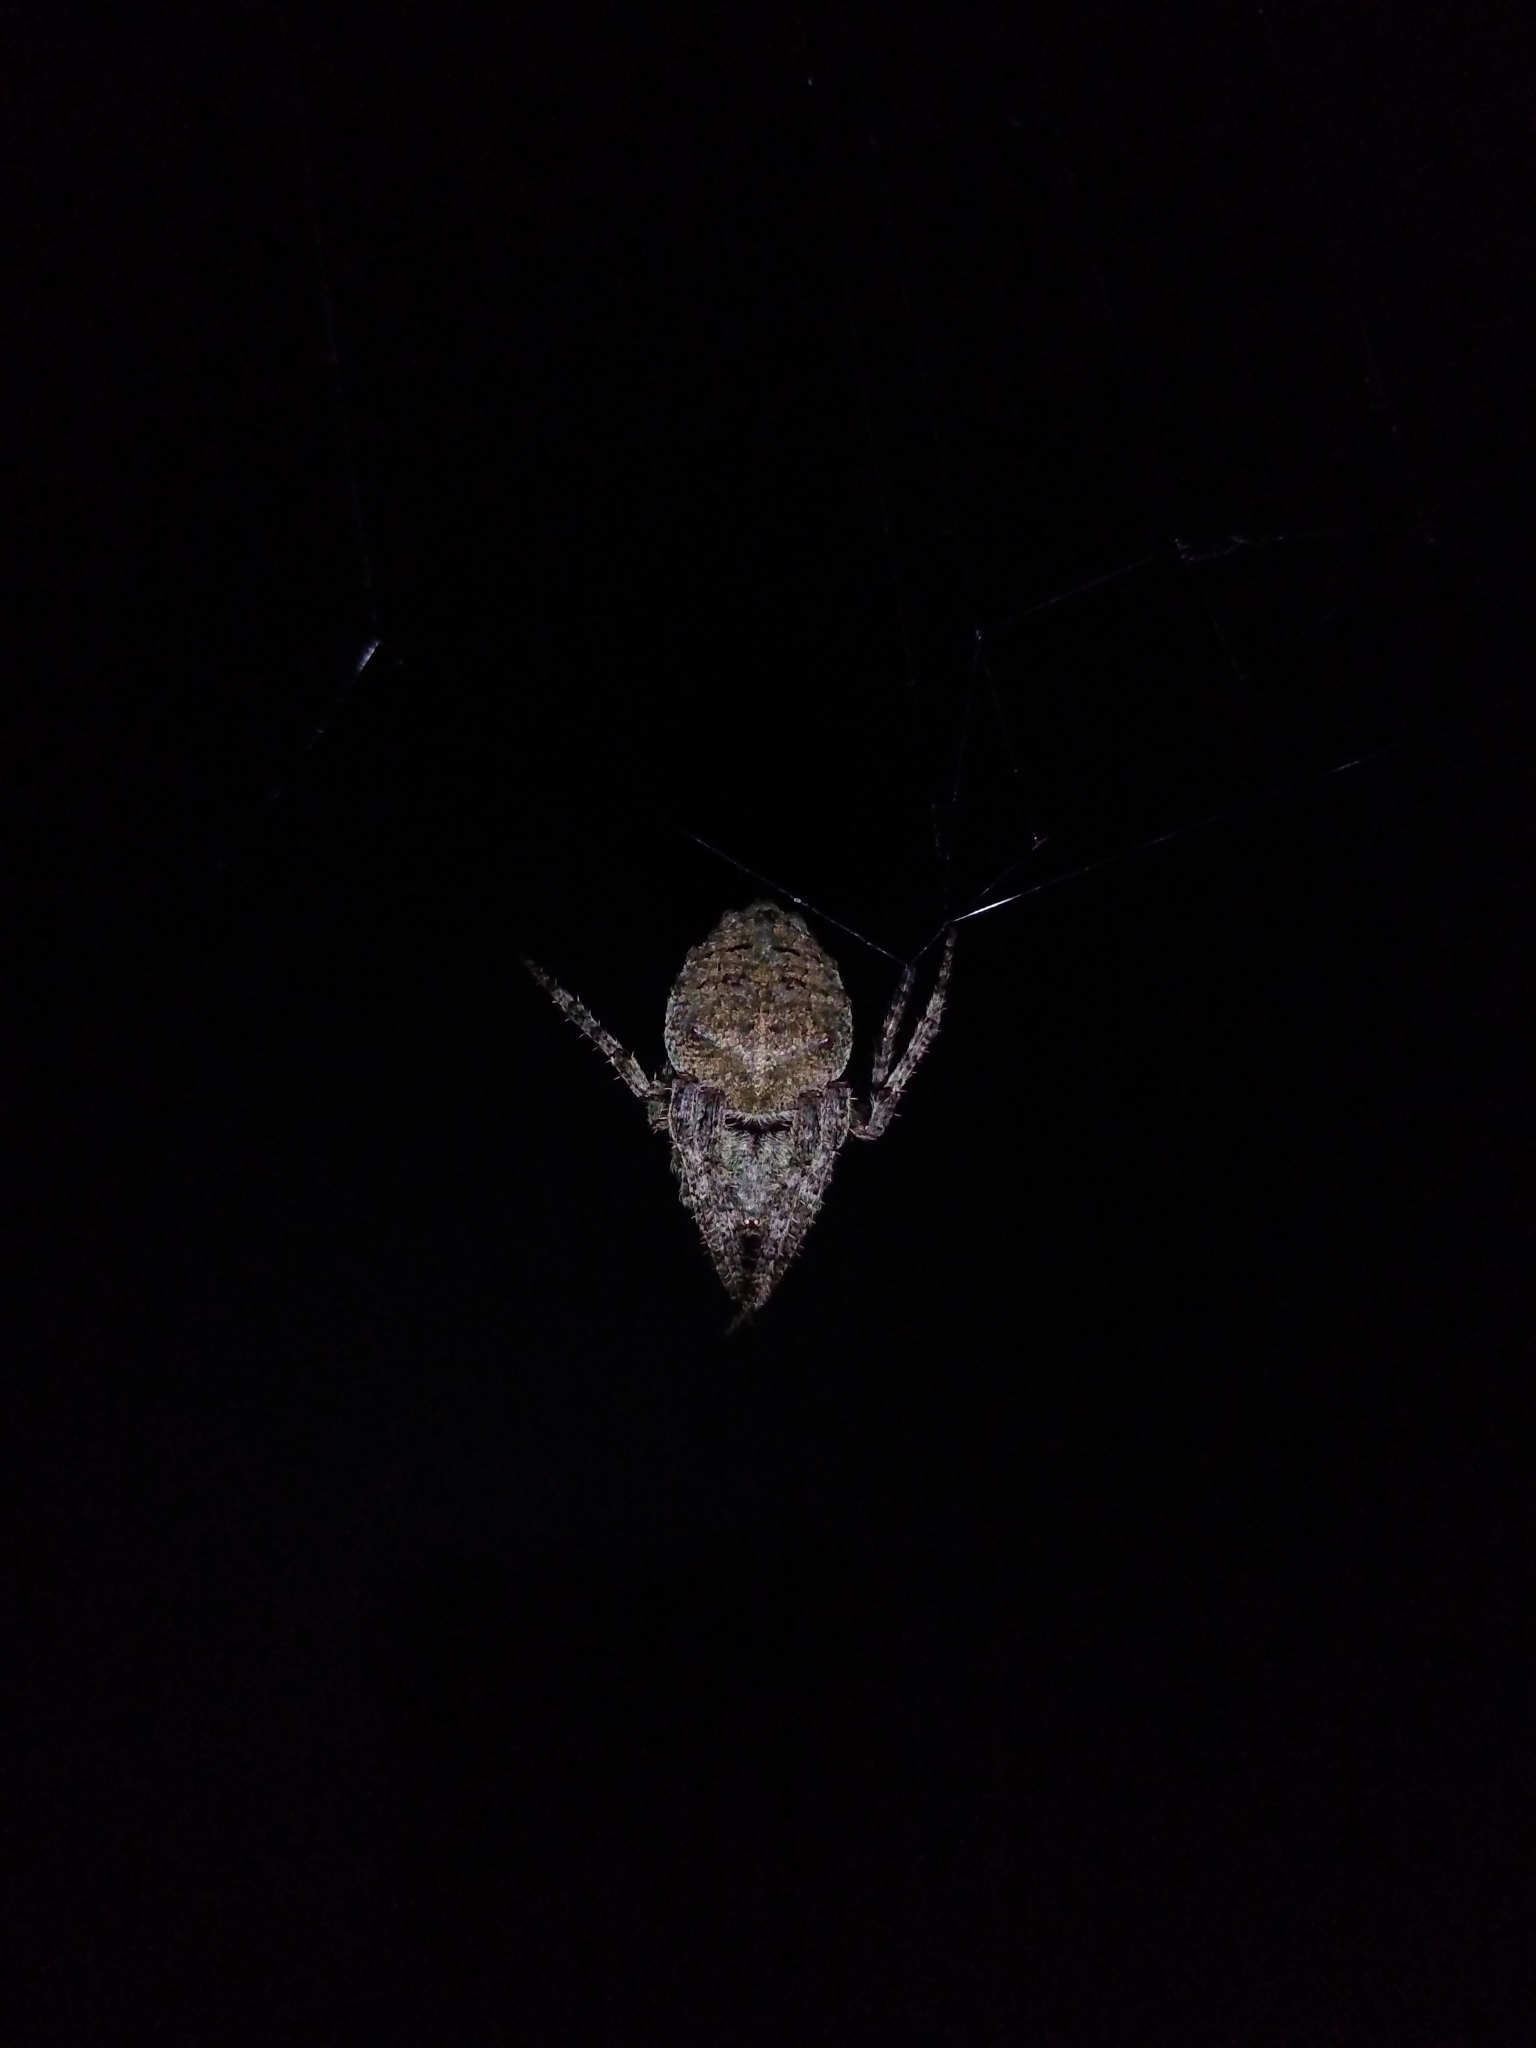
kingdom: Animalia
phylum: Arthropoda
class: Arachnida
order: Araneae
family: Araneidae
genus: Parawixia
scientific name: Parawixia audax
